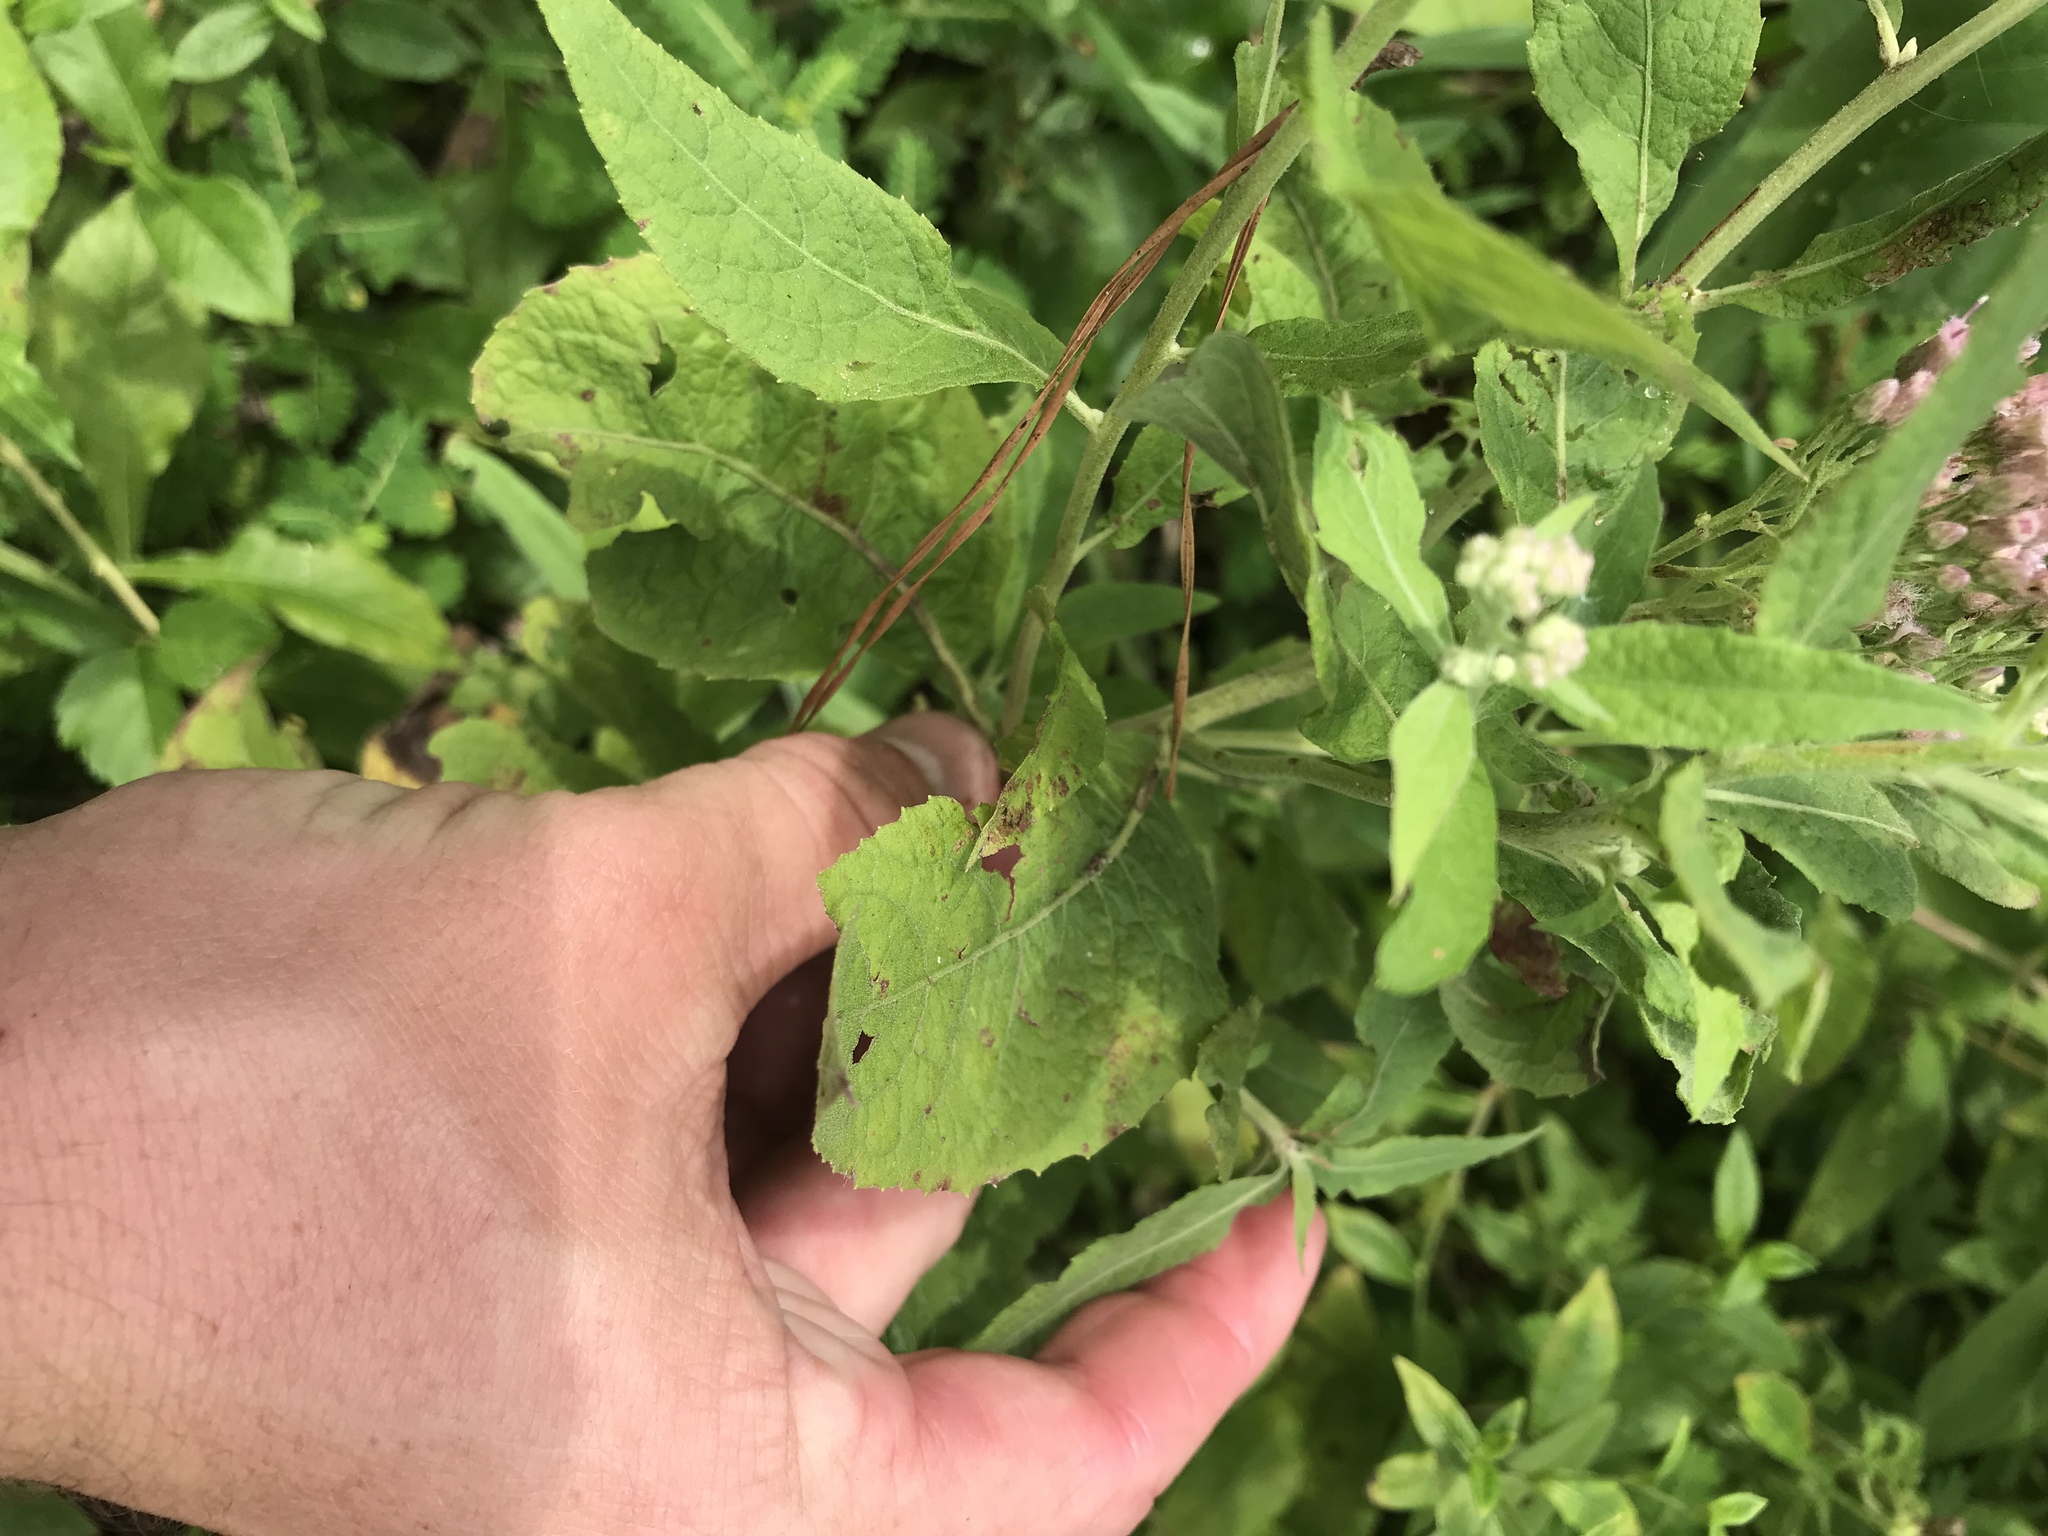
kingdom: Plantae
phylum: Tracheophyta
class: Magnoliopsida
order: Asterales
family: Asteraceae
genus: Pluchea
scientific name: Pluchea camphorata
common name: Camphor pluchea
